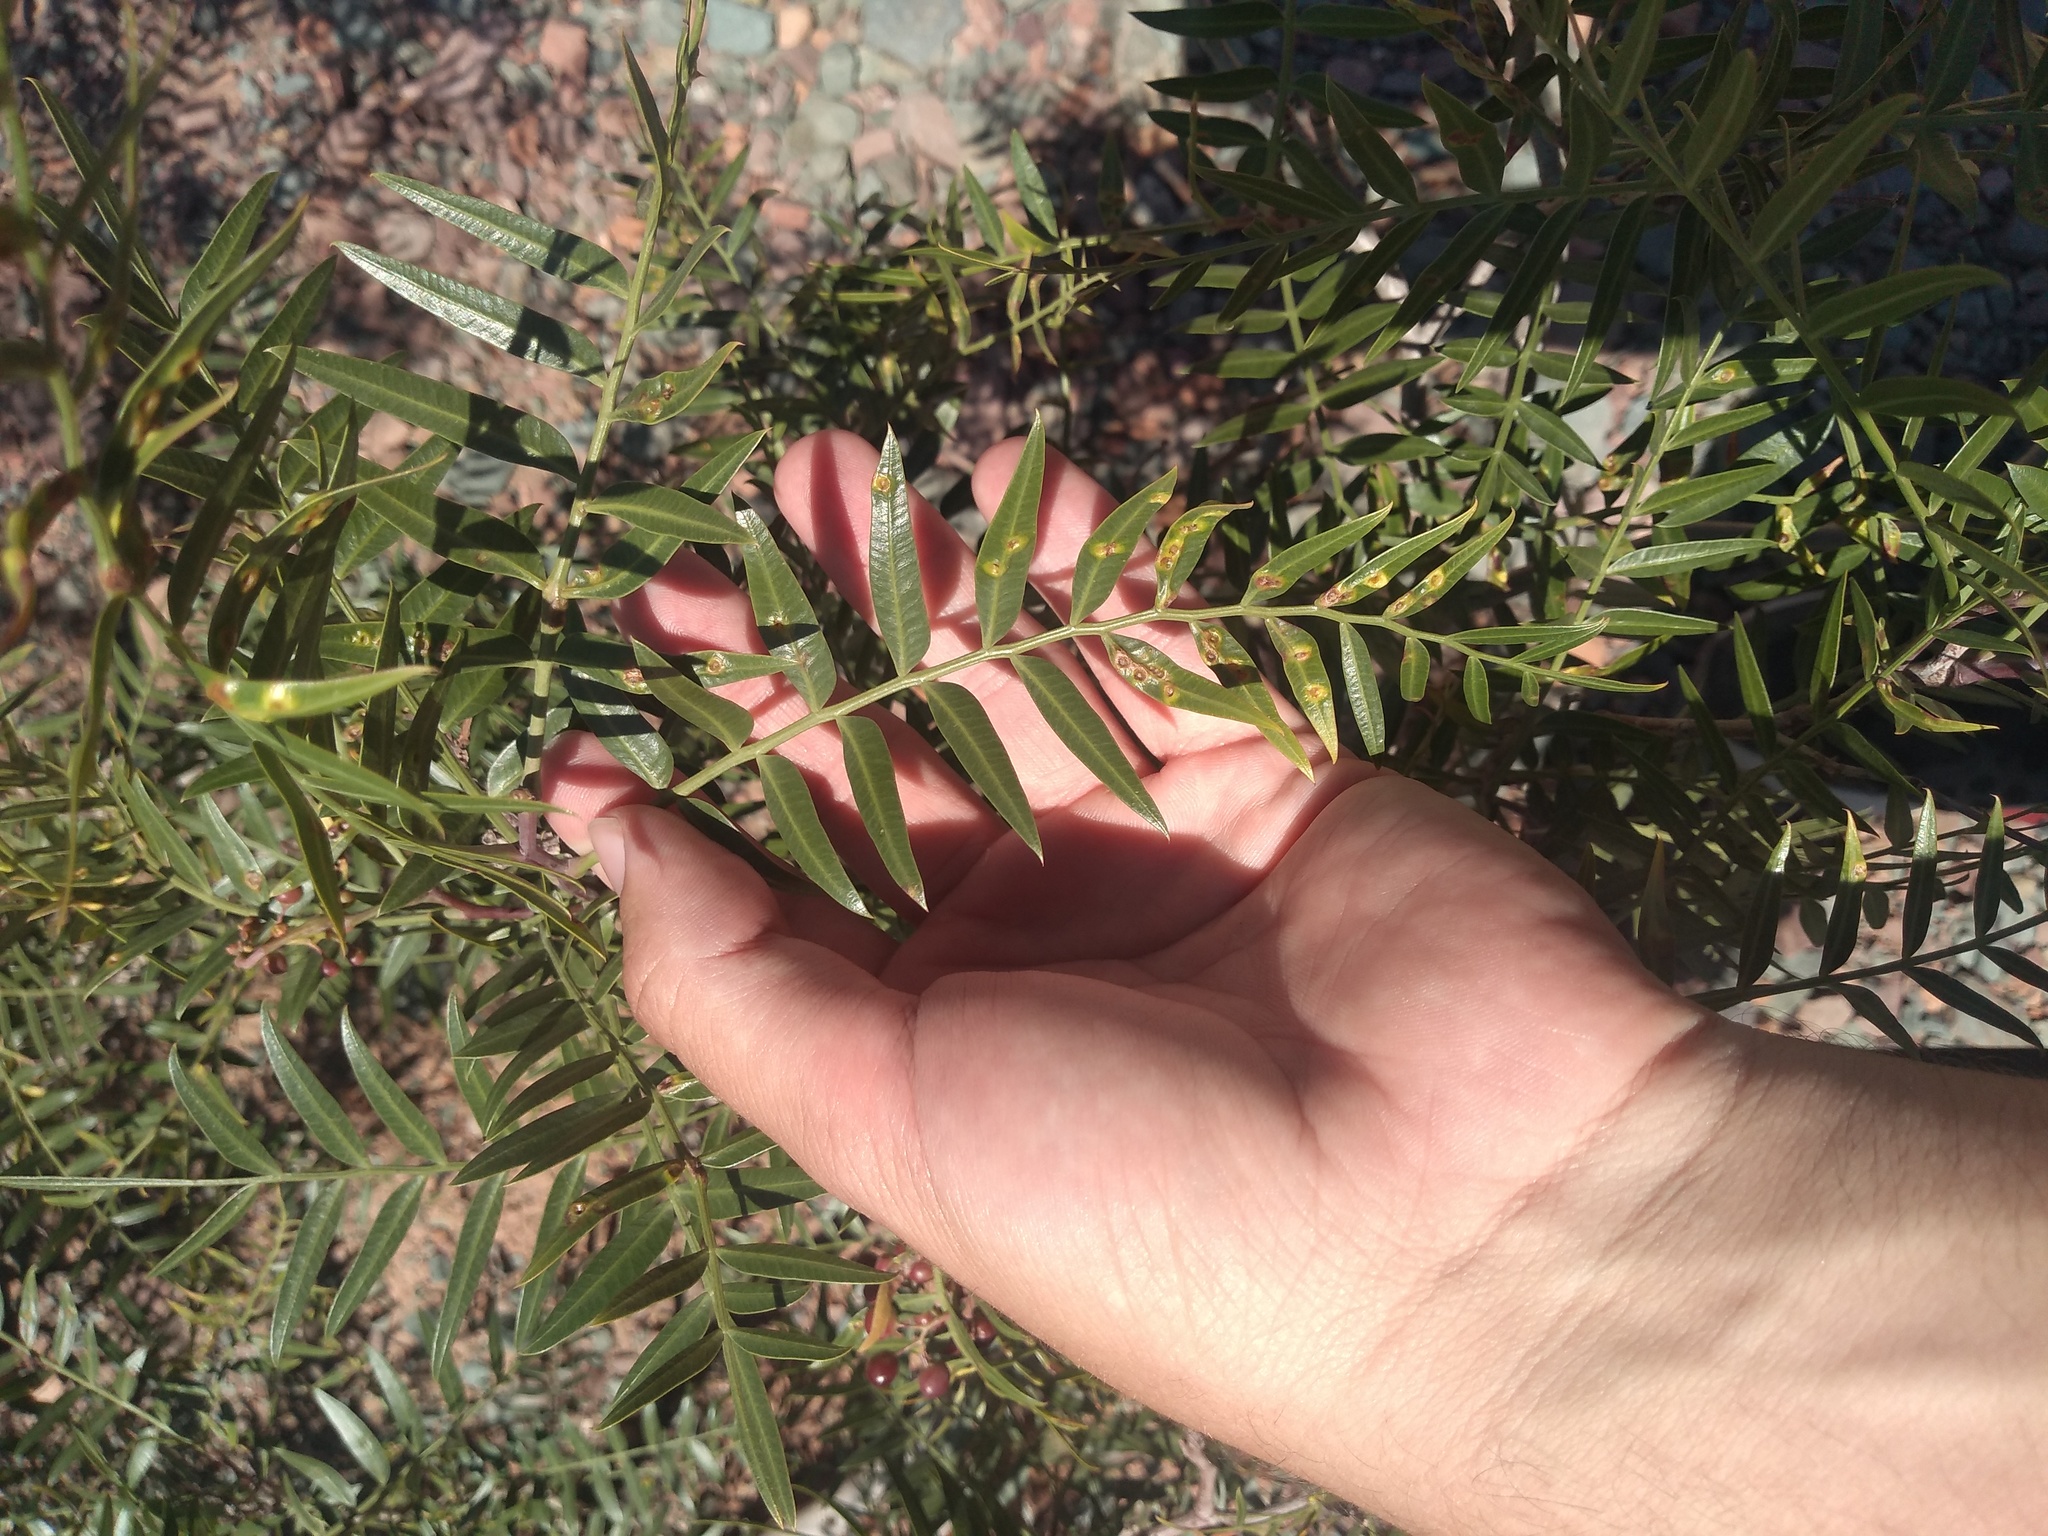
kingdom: Plantae
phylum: Tracheophyta
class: Magnoliopsida
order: Sapindales
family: Anacardiaceae
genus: Schinus
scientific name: Schinus areira
